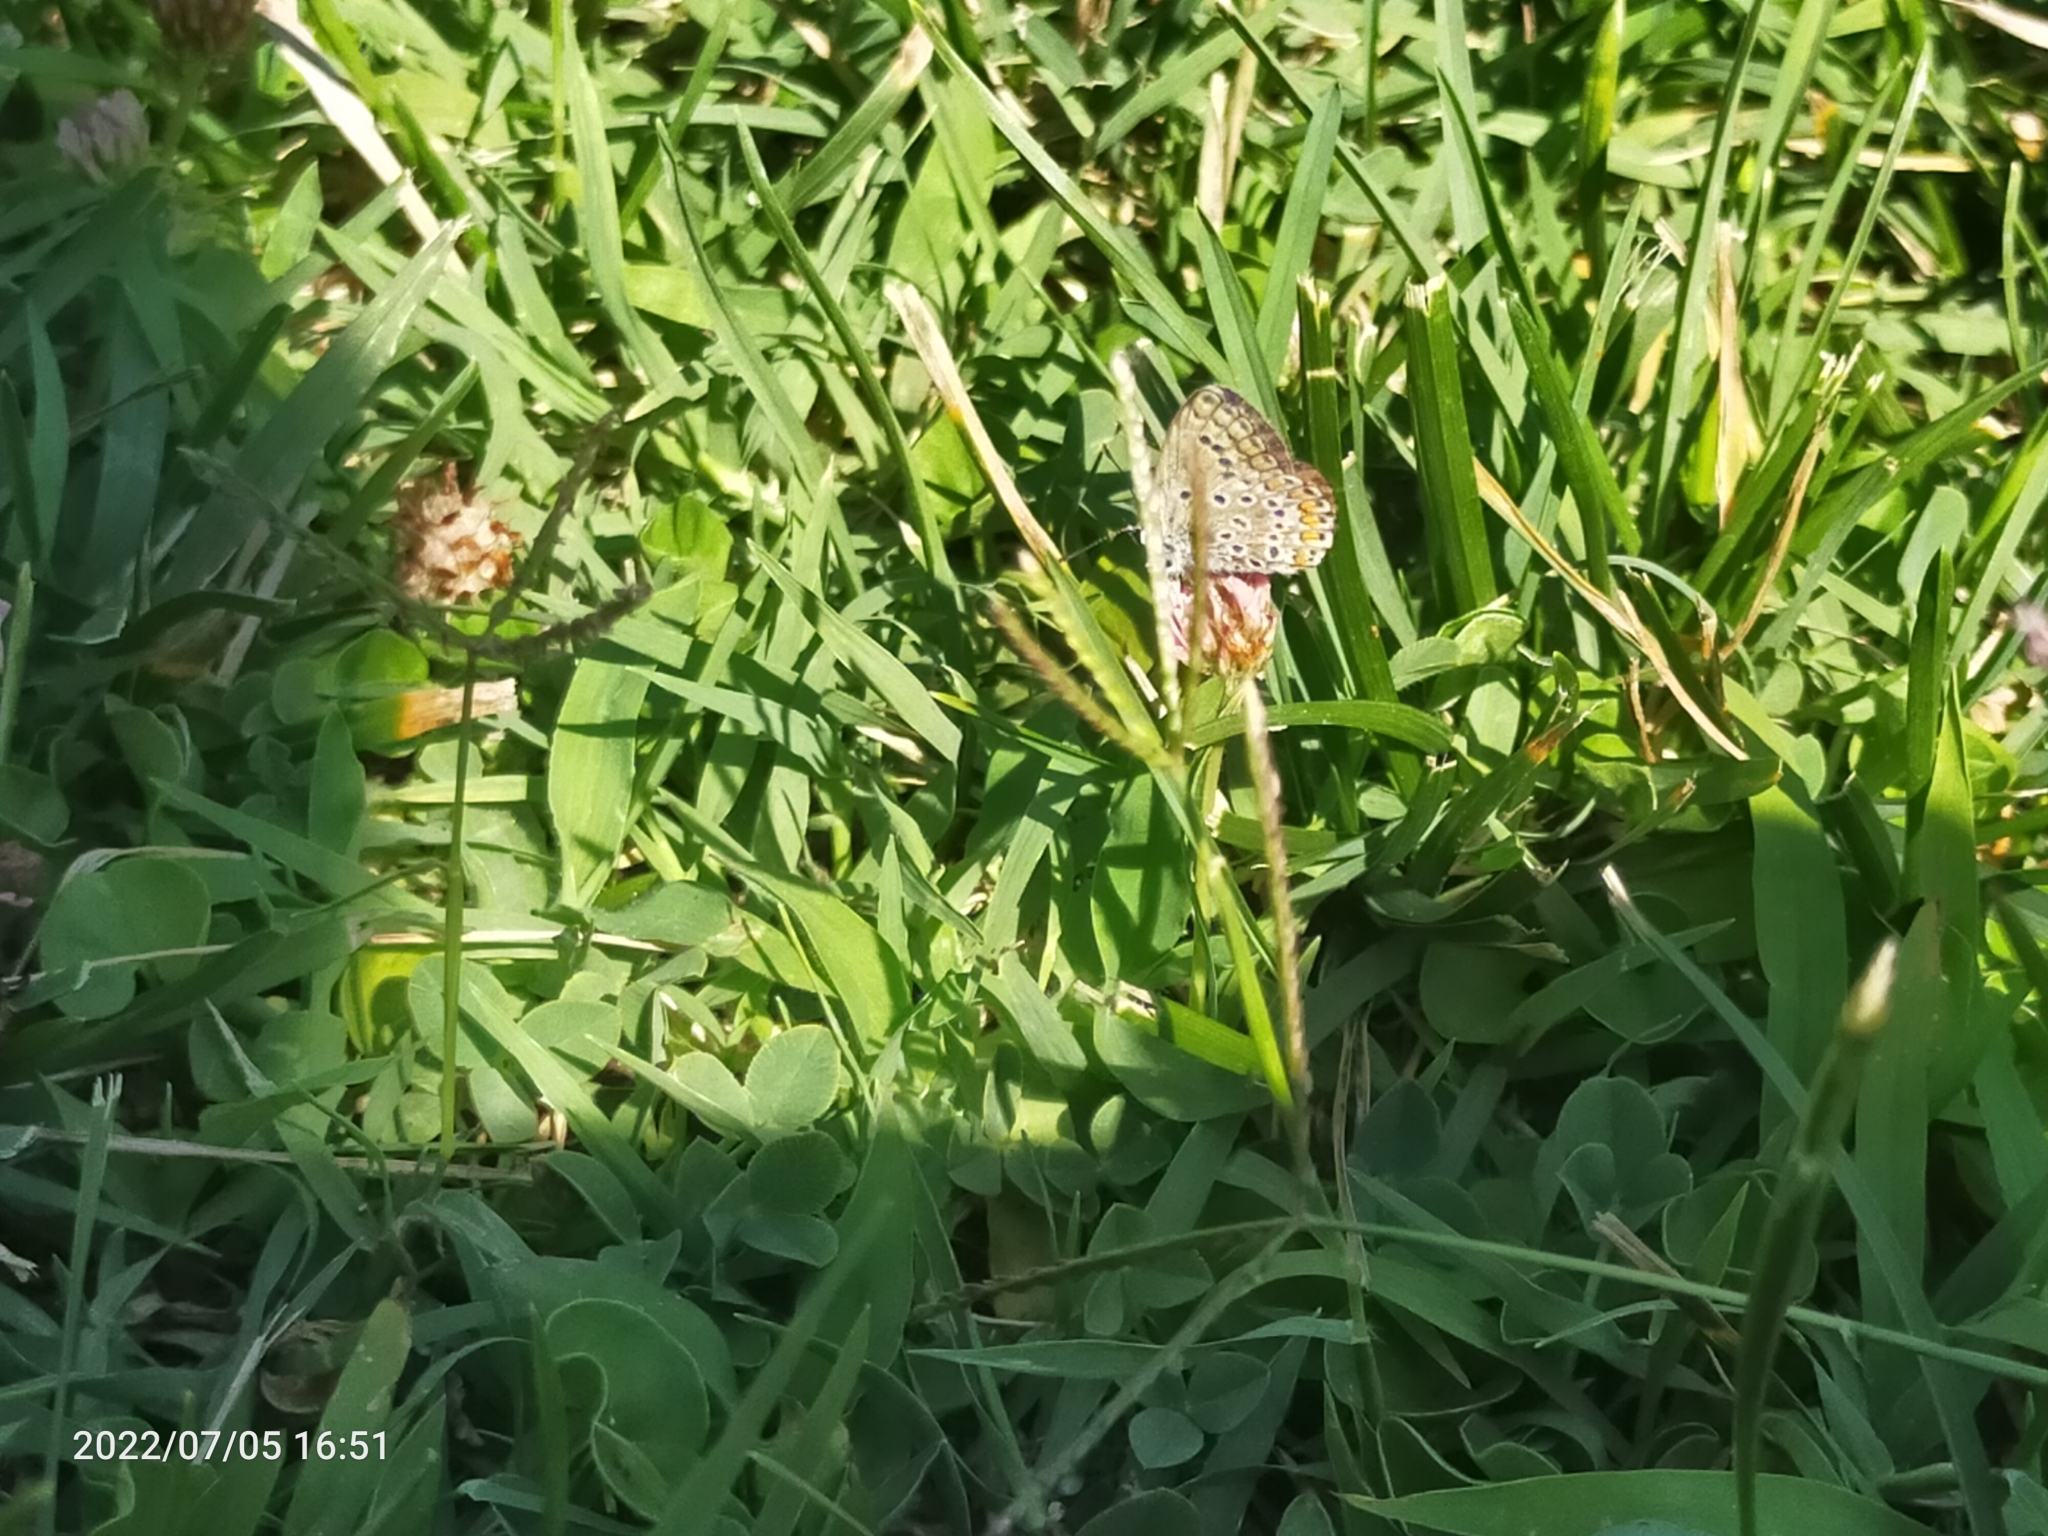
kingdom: Animalia
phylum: Arthropoda
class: Insecta
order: Lepidoptera
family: Lycaenidae
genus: Polyommatus
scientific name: Polyommatus icarus
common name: Common blue
